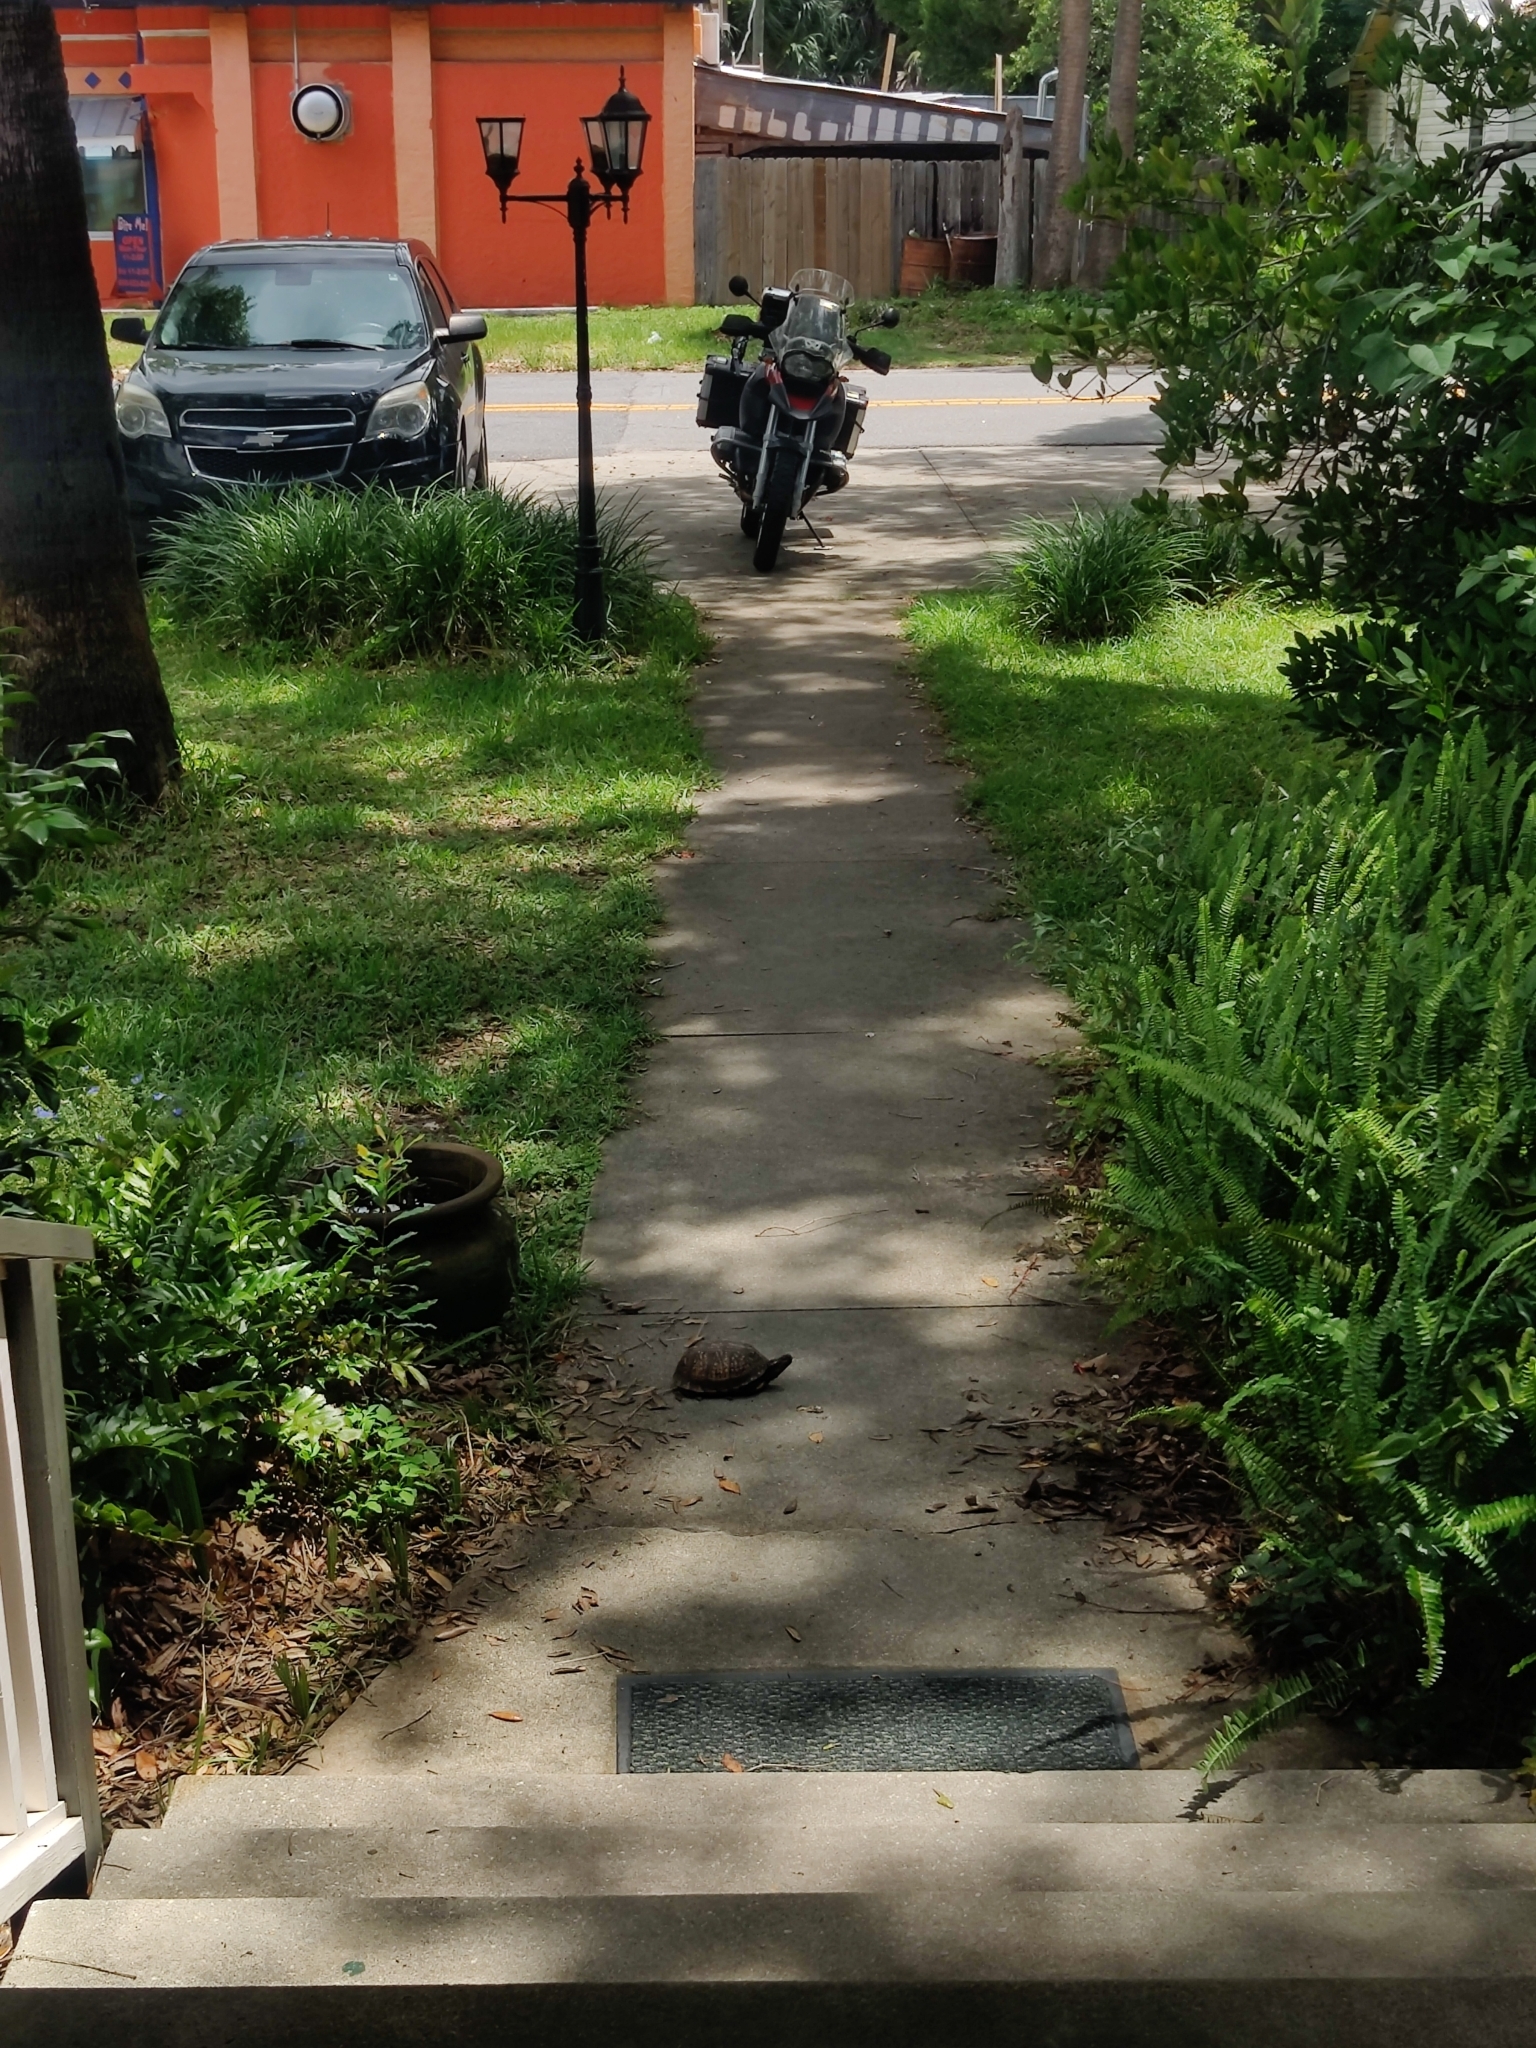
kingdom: Animalia
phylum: Chordata
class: Testudines
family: Emydidae
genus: Terrapene
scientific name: Terrapene carolina
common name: Common box turtle
